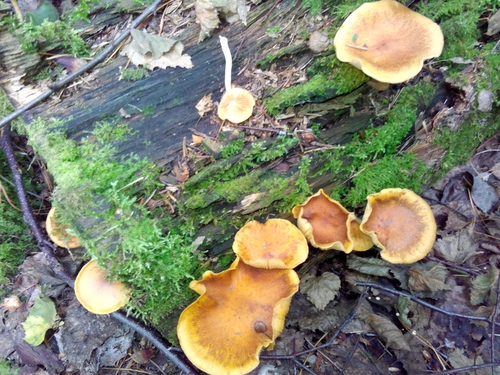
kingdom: Fungi
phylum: Basidiomycota
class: Agaricomycetes
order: Agaricales
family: Hymenogastraceae
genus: Gymnopilus
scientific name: Gymnopilus
